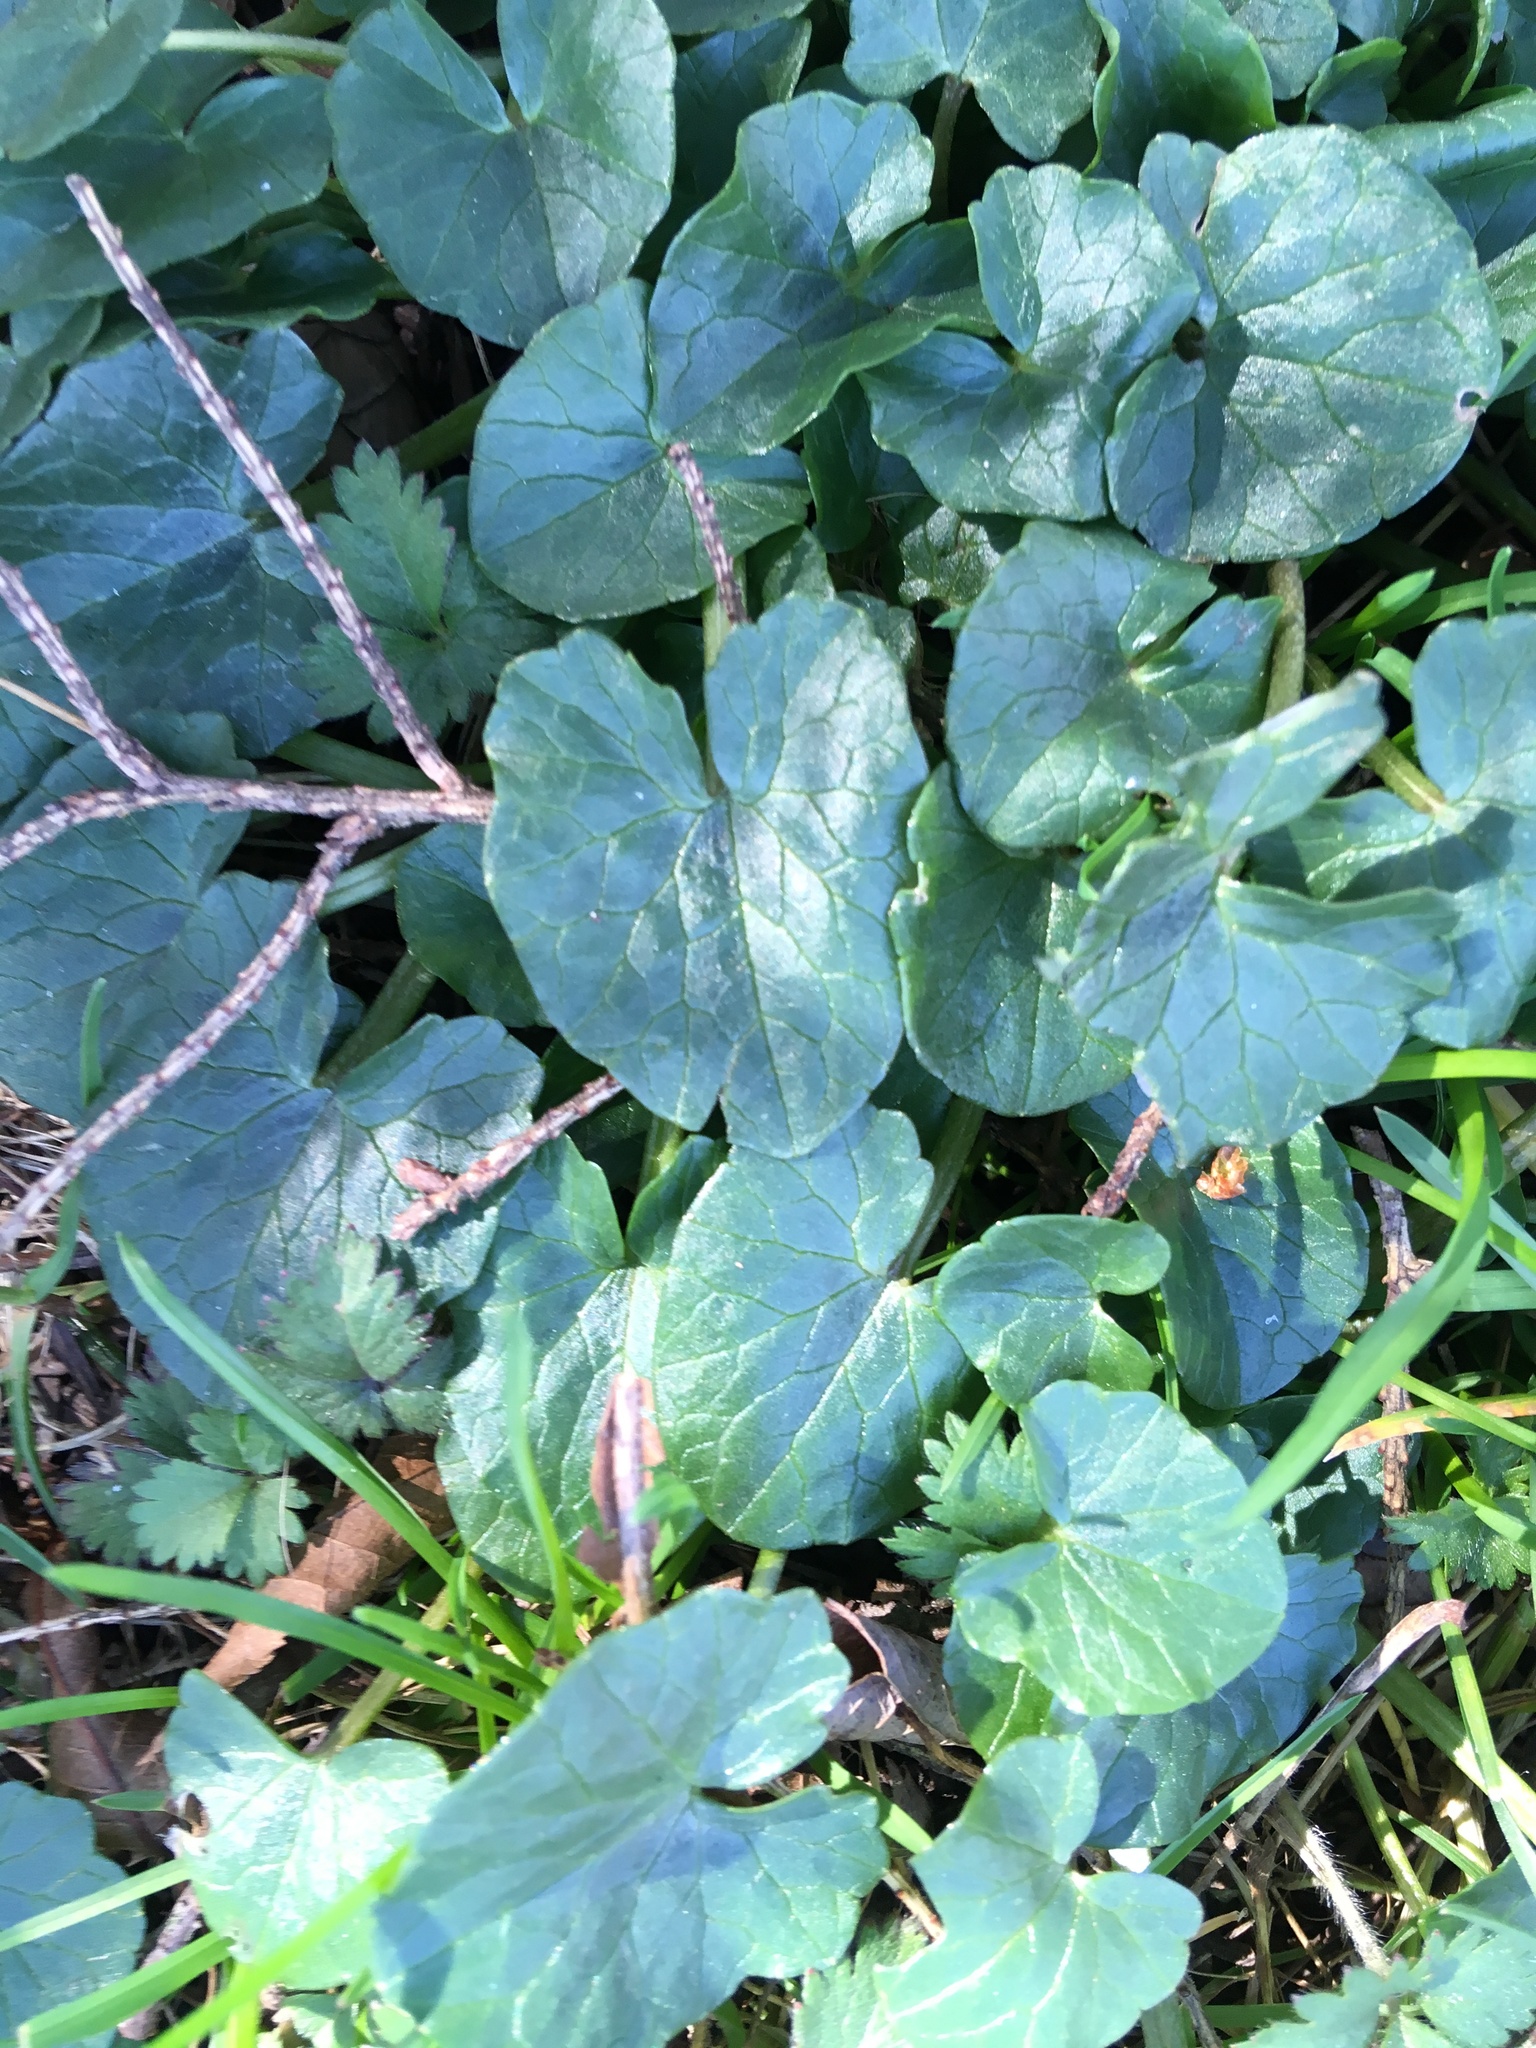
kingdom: Plantae
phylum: Tracheophyta
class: Magnoliopsida
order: Ranunculales
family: Ranunculaceae
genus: Ficaria
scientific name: Ficaria verna
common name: Lesser celandine
